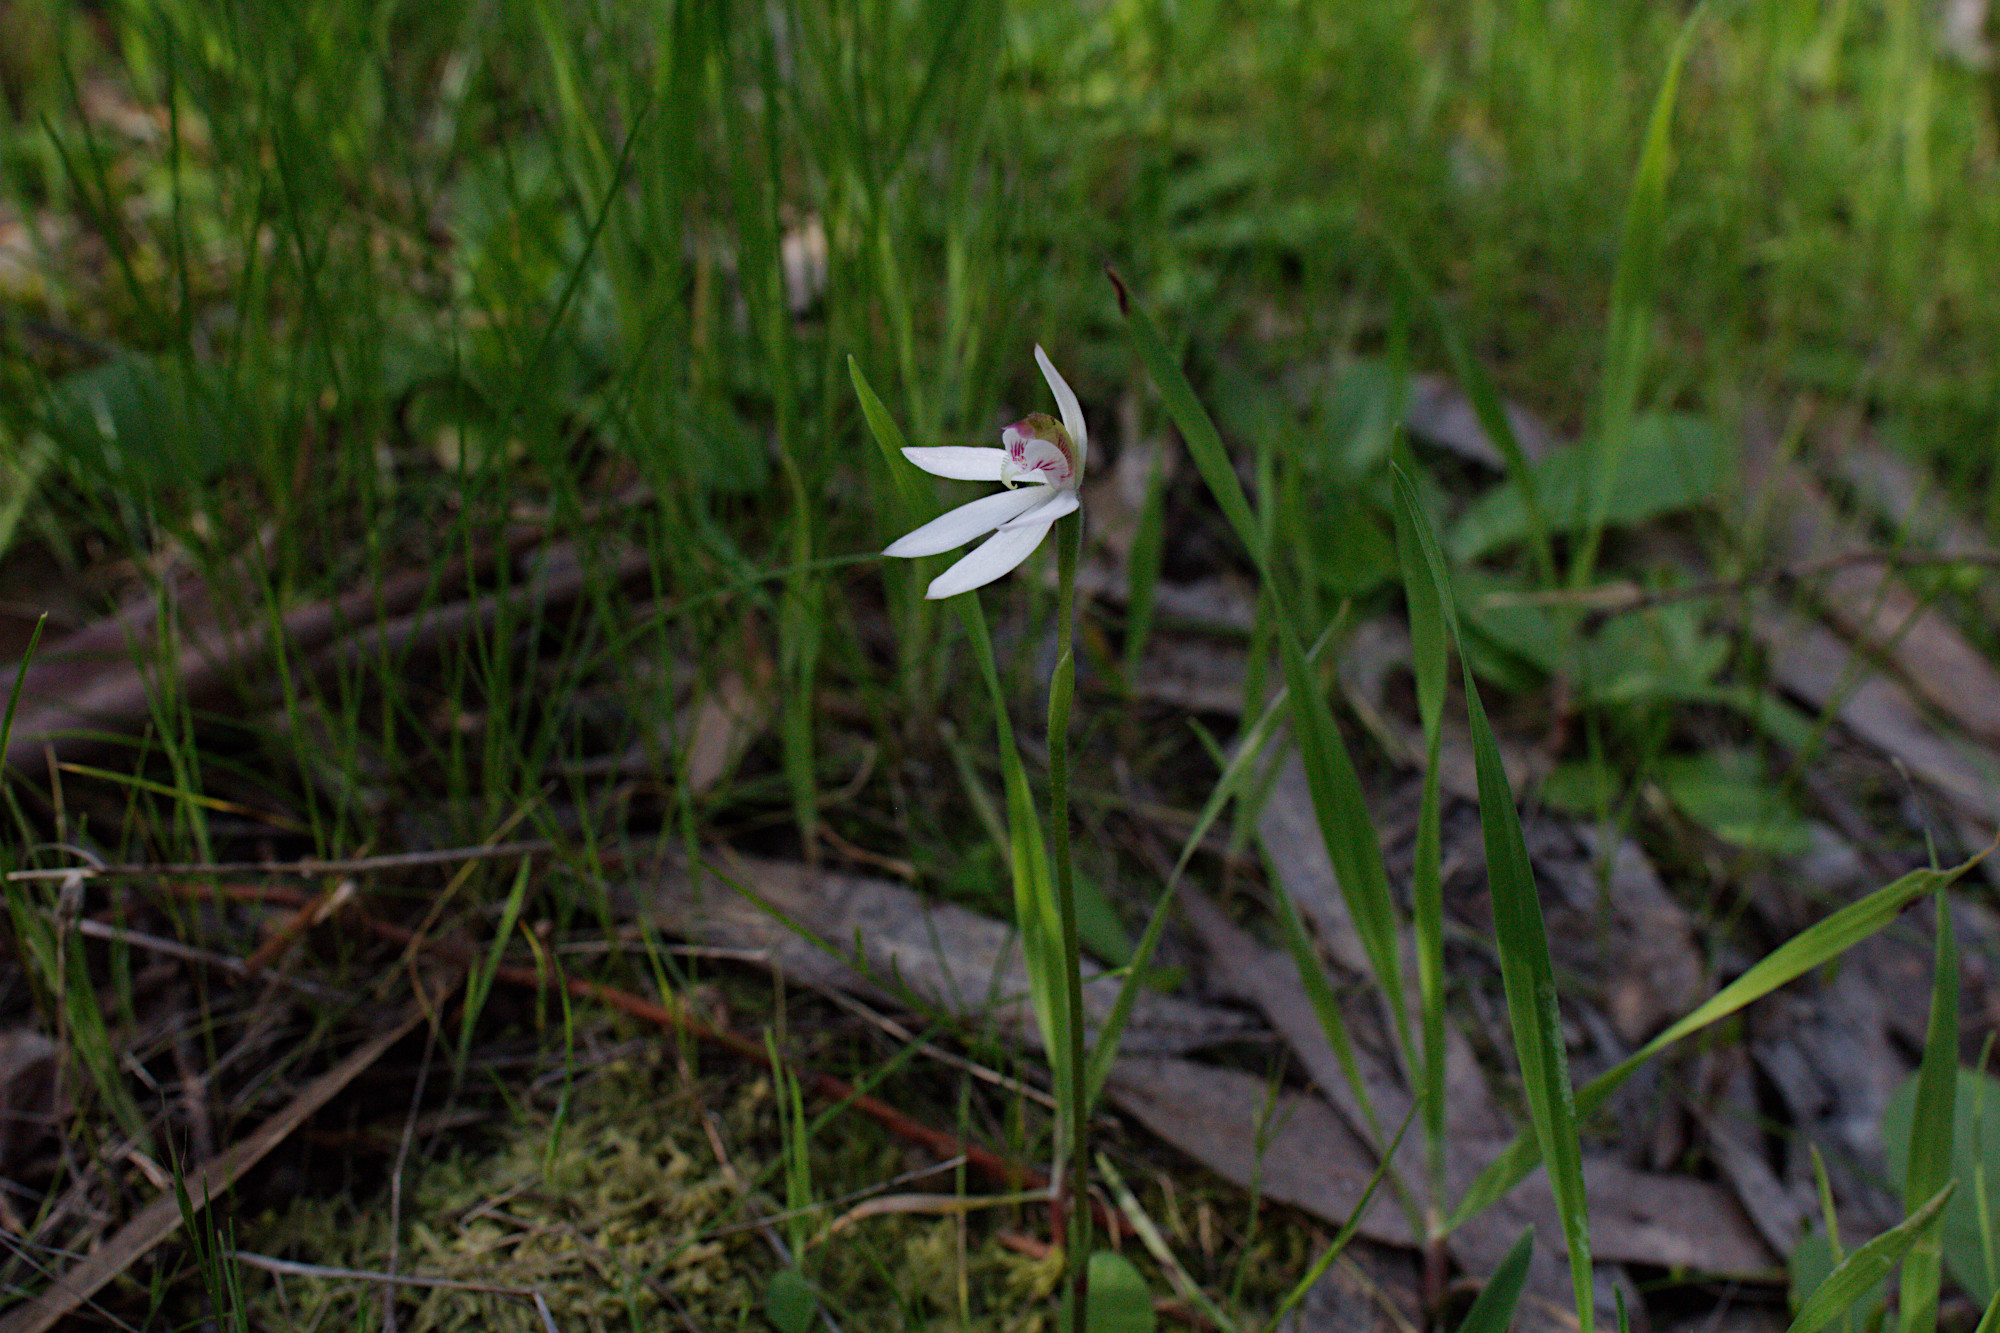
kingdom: Plantae
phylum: Tracheophyta
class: Liliopsida
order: Asparagales
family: Orchidaceae
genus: Caladenia
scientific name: Caladenia carnea
